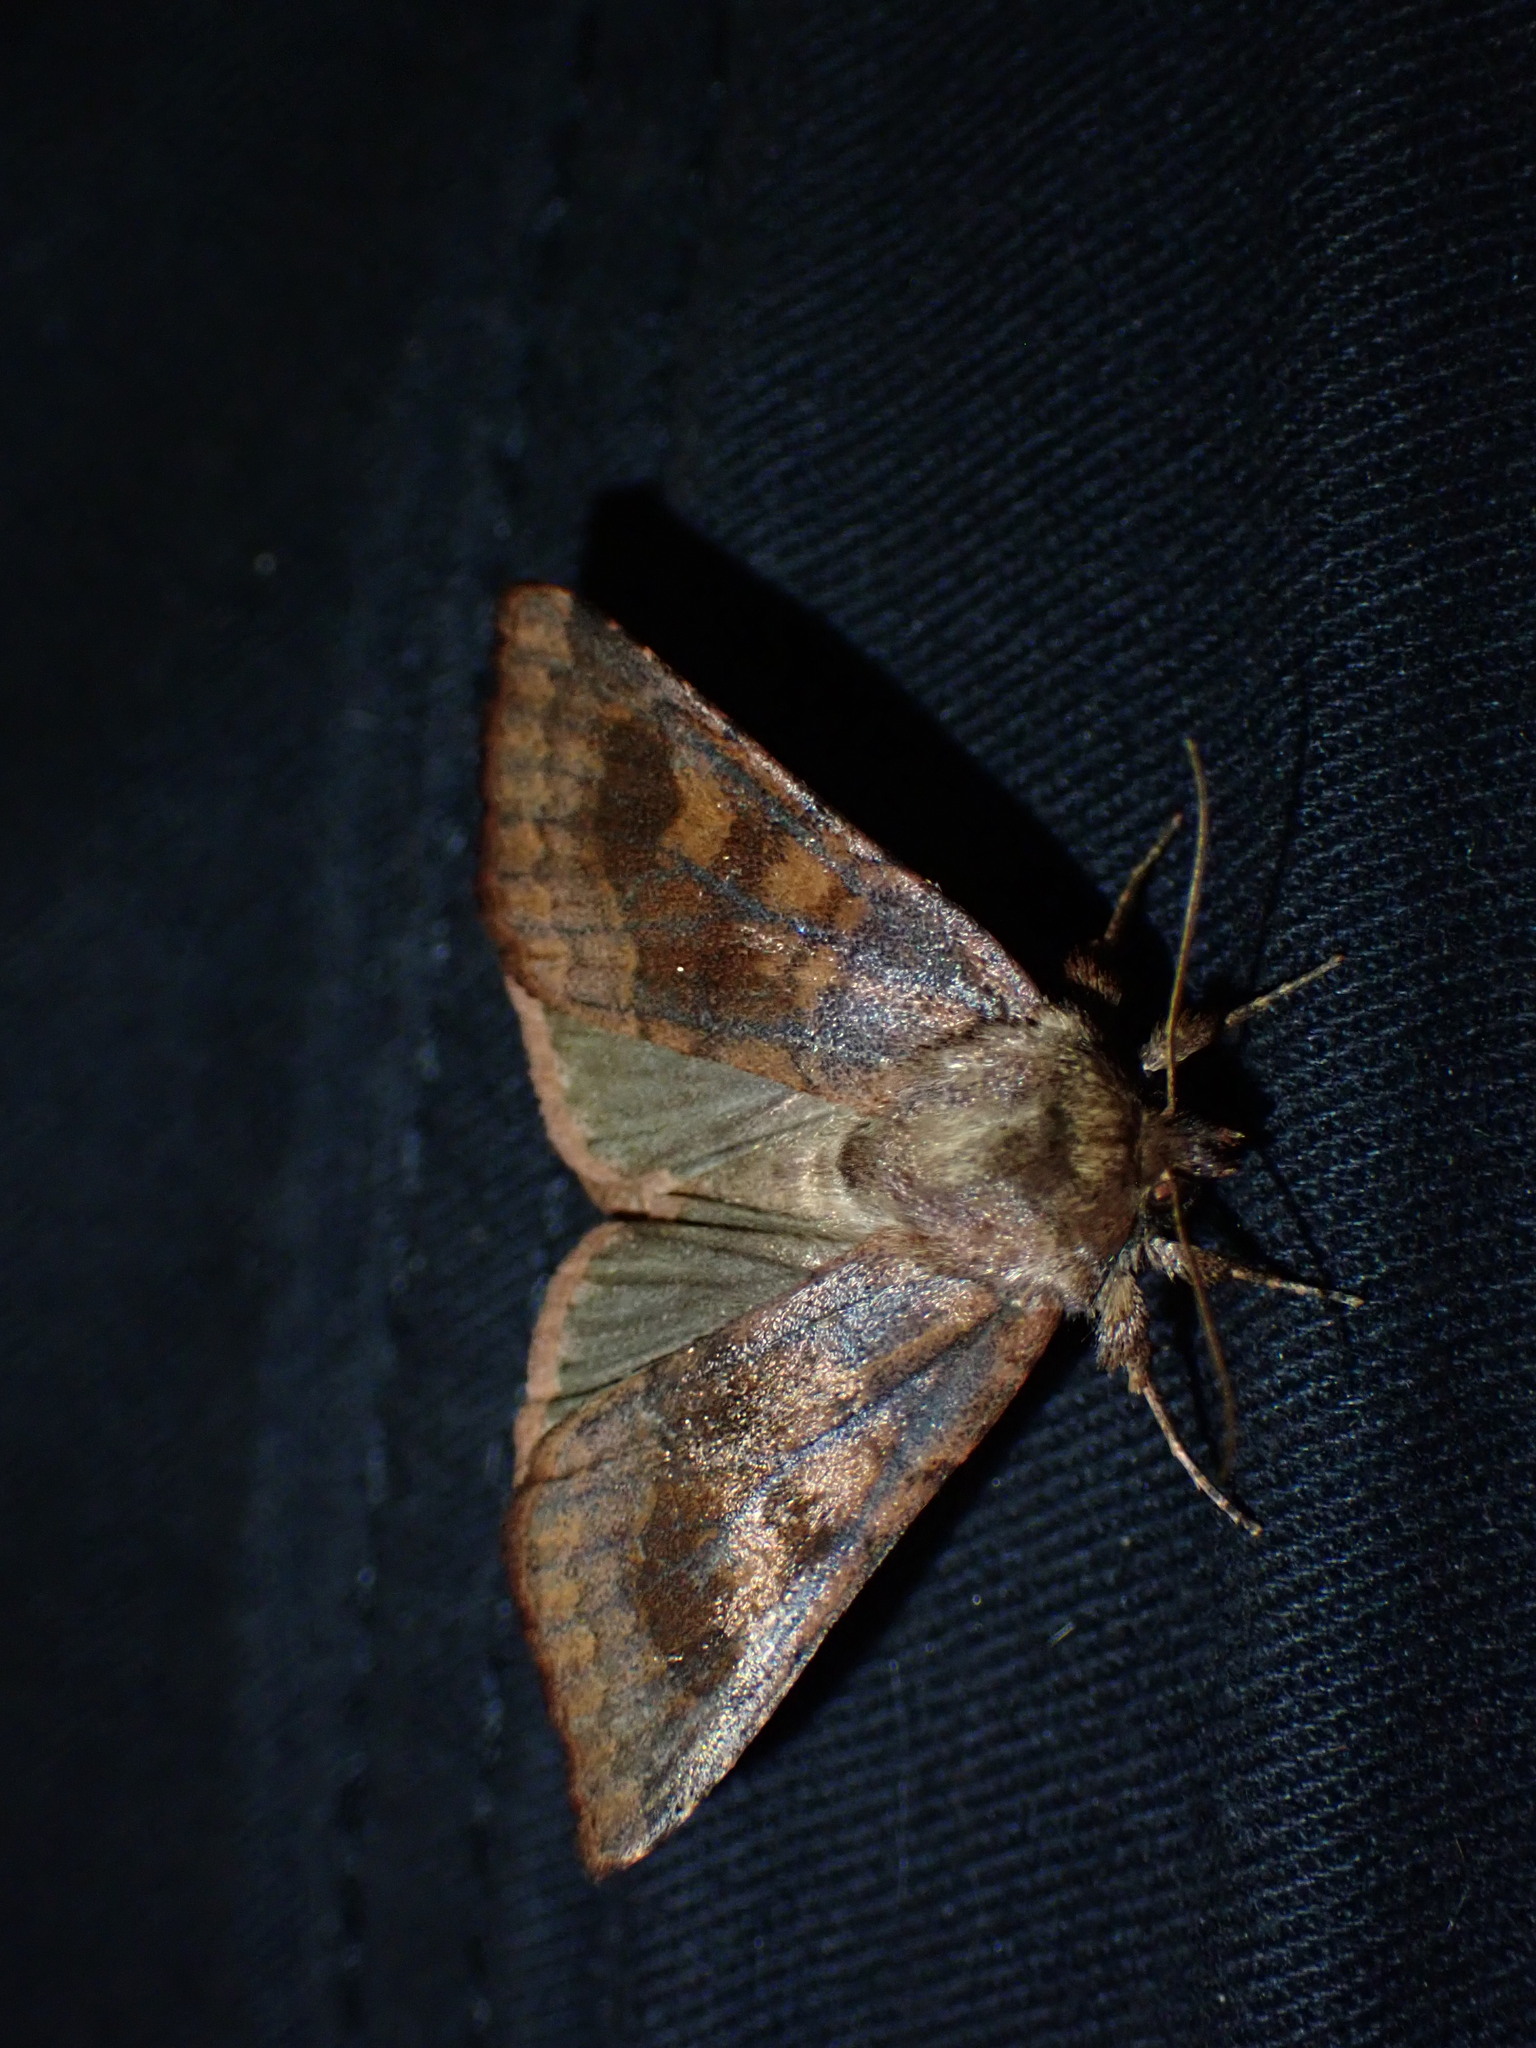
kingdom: Animalia
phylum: Arthropoda
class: Insecta
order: Lepidoptera
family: Noctuidae
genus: Nephelodes
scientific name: Nephelodes minians
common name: Bronzed cutworm
